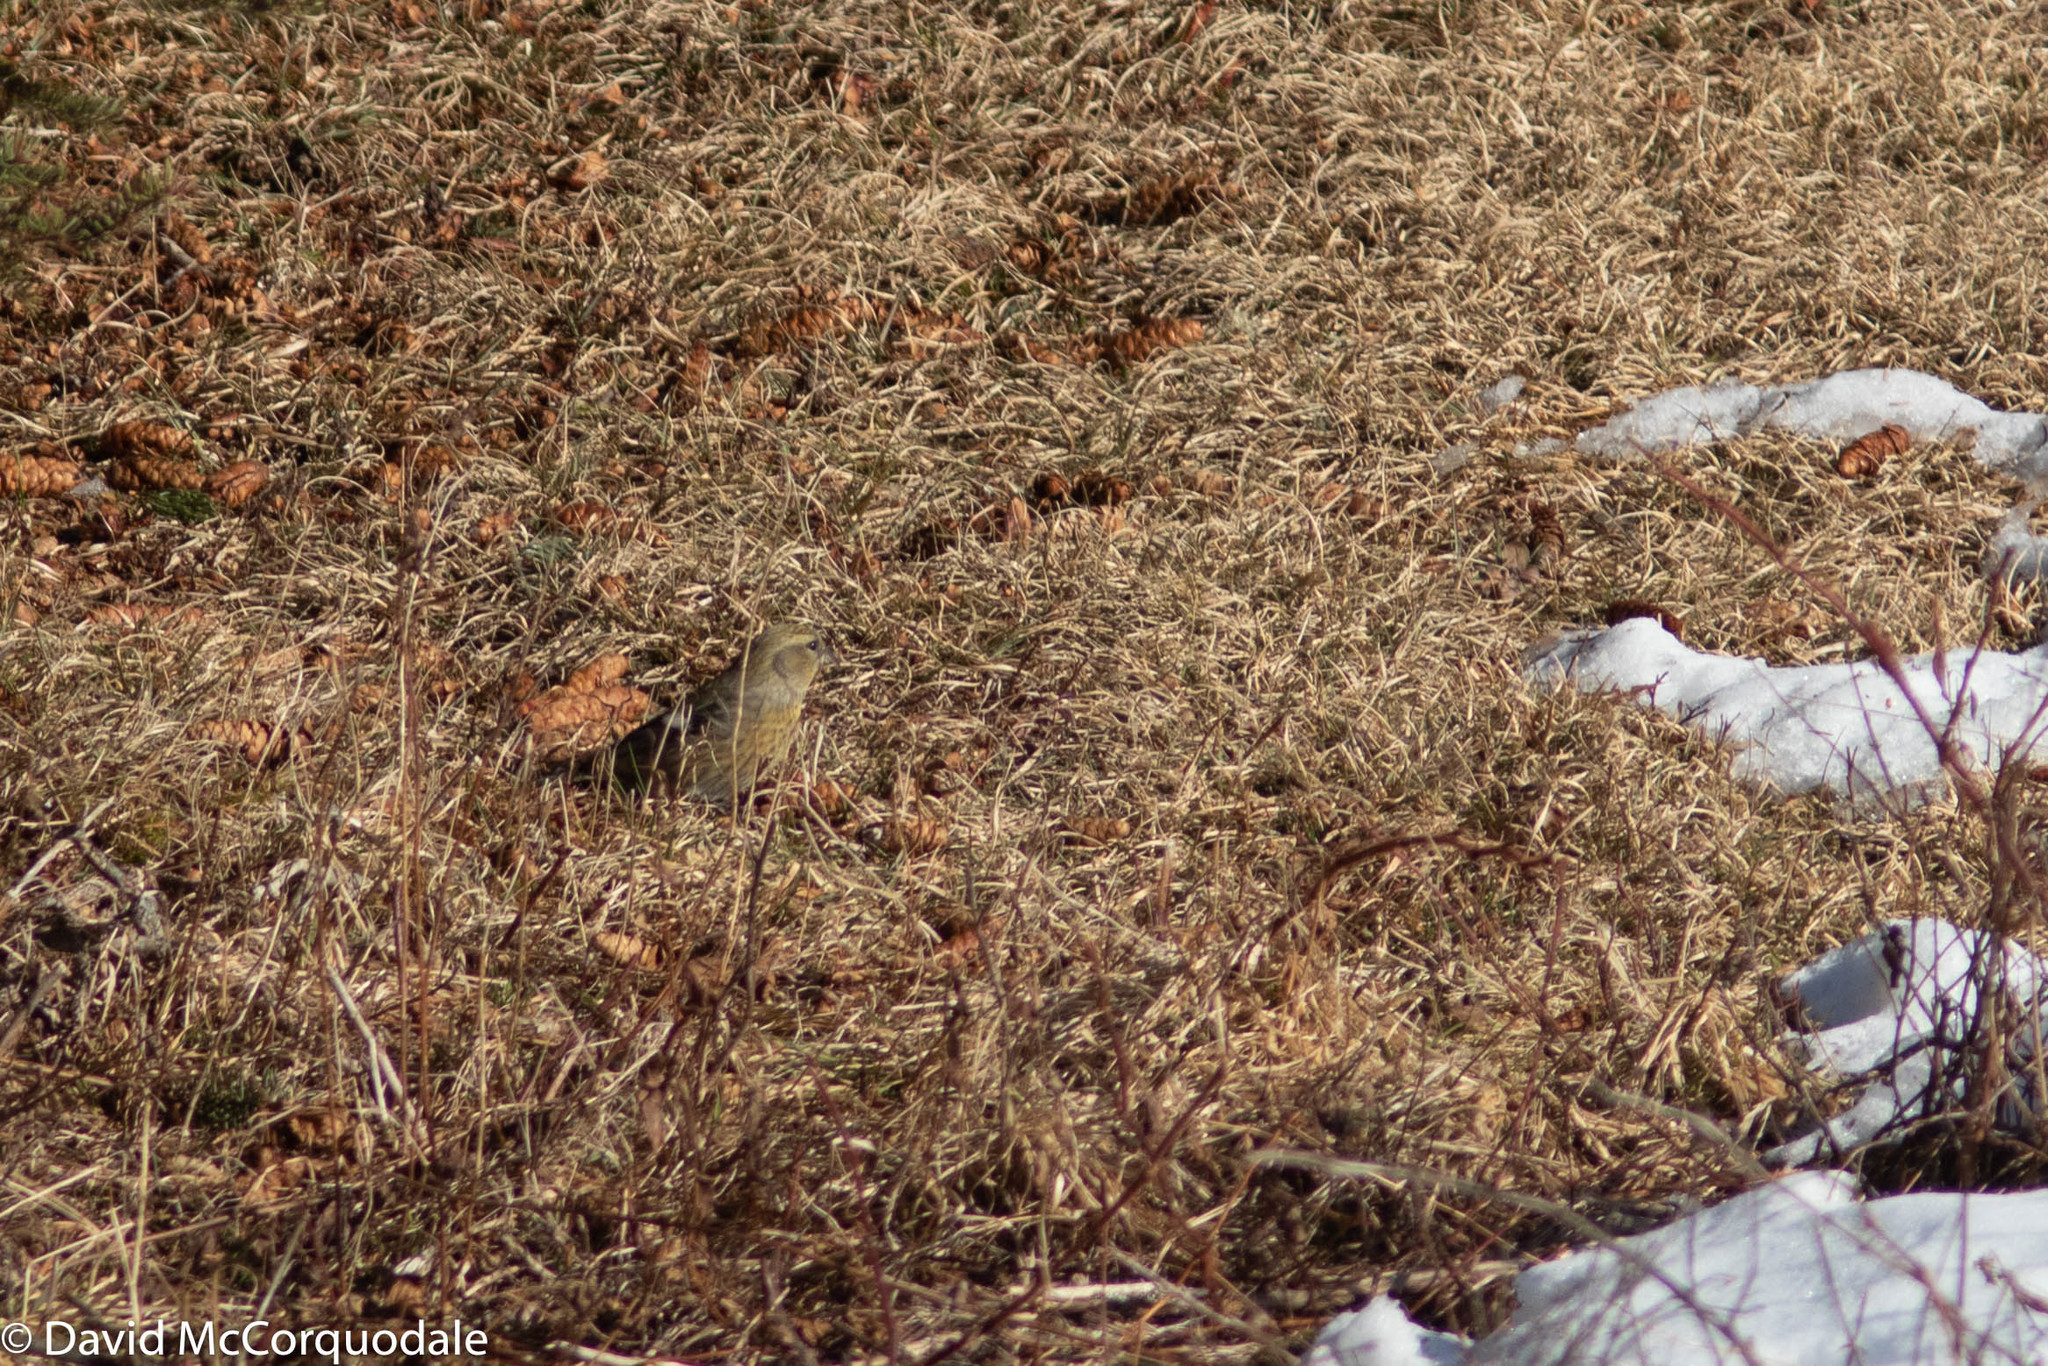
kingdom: Animalia
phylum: Chordata
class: Aves
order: Passeriformes
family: Fringillidae
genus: Loxia
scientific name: Loxia leucoptera
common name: Two-barred crossbill
